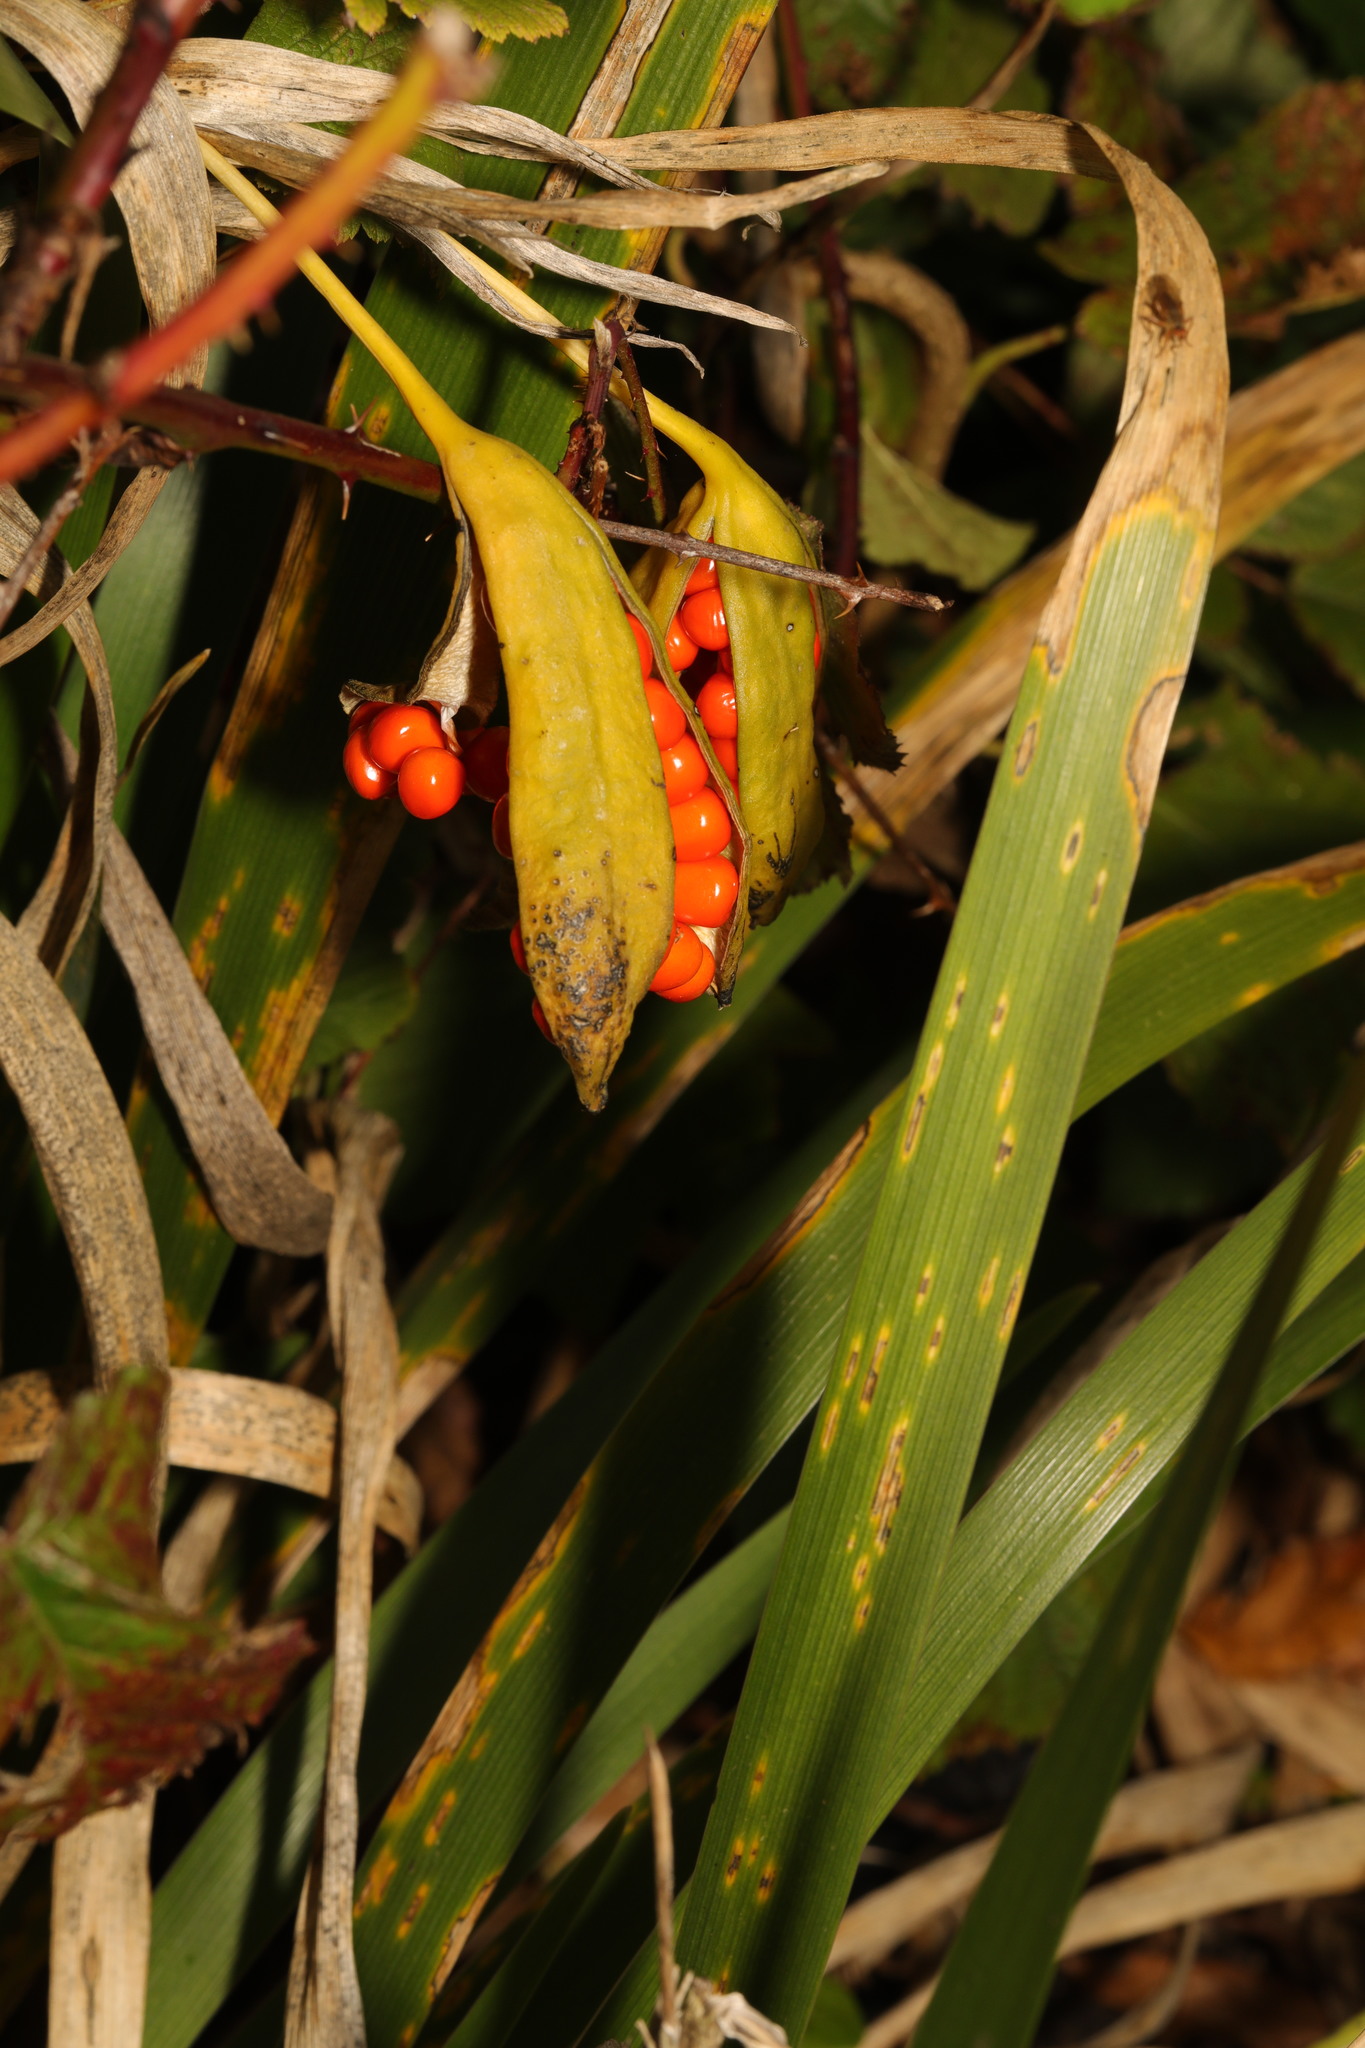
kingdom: Plantae
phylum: Tracheophyta
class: Liliopsida
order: Asparagales
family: Iridaceae
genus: Iris
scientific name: Iris foetidissima
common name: Stinking iris
